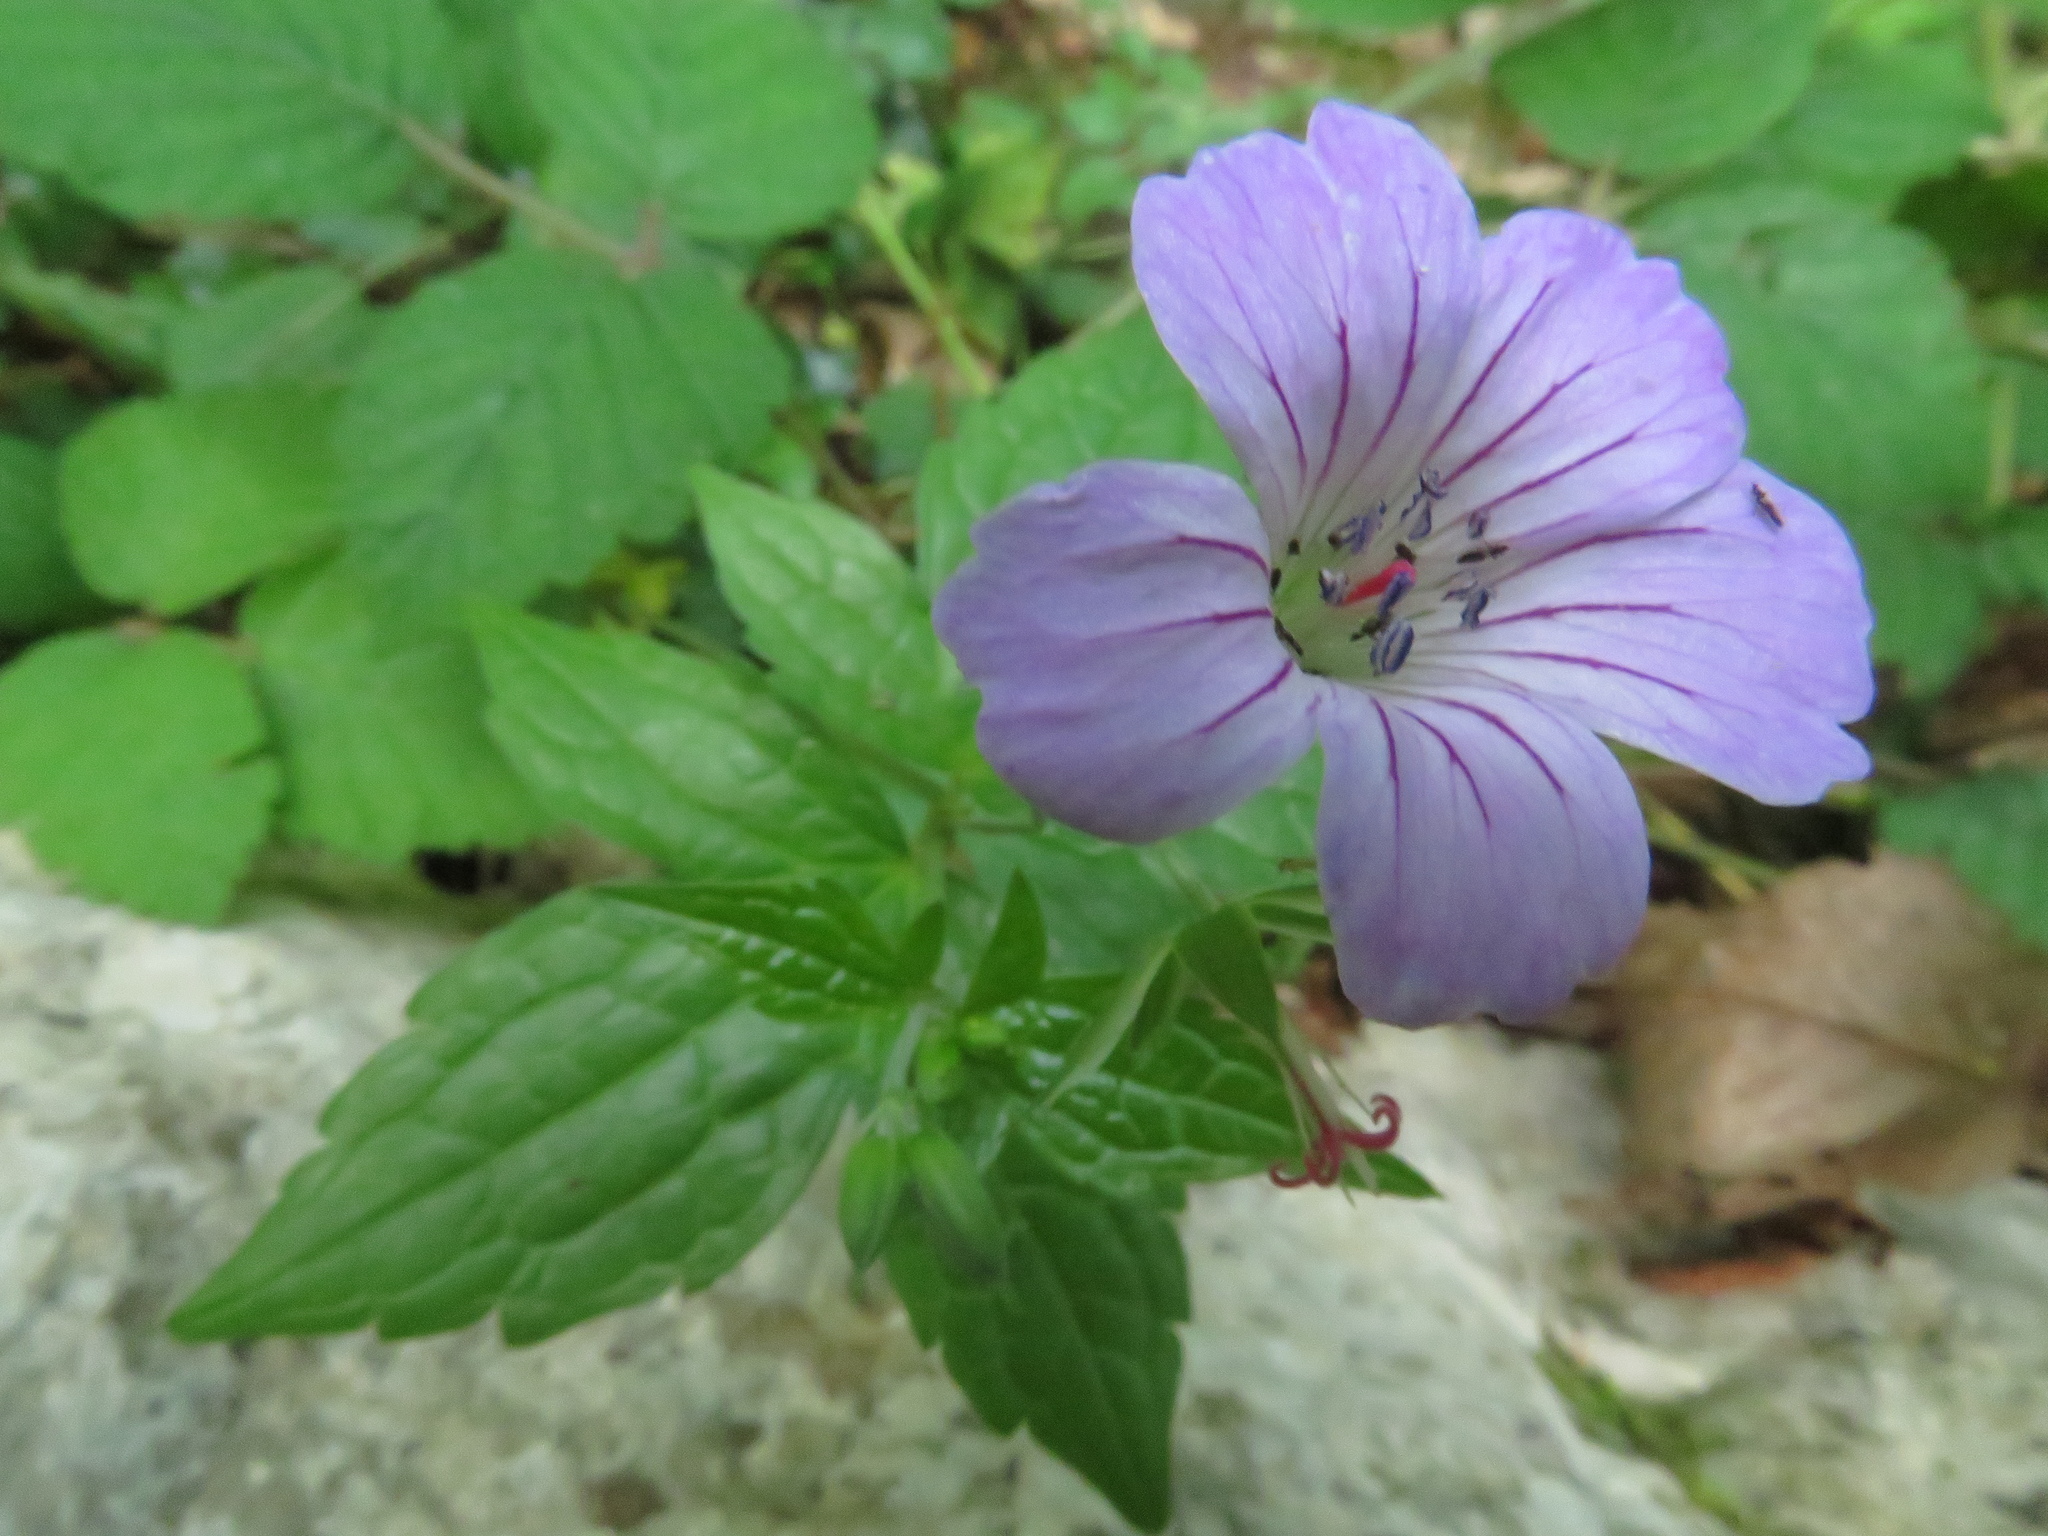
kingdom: Plantae
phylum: Tracheophyta
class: Magnoliopsida
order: Geraniales
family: Geraniaceae
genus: Geranium
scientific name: Geranium nodosum
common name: Knotted crane's-bill
